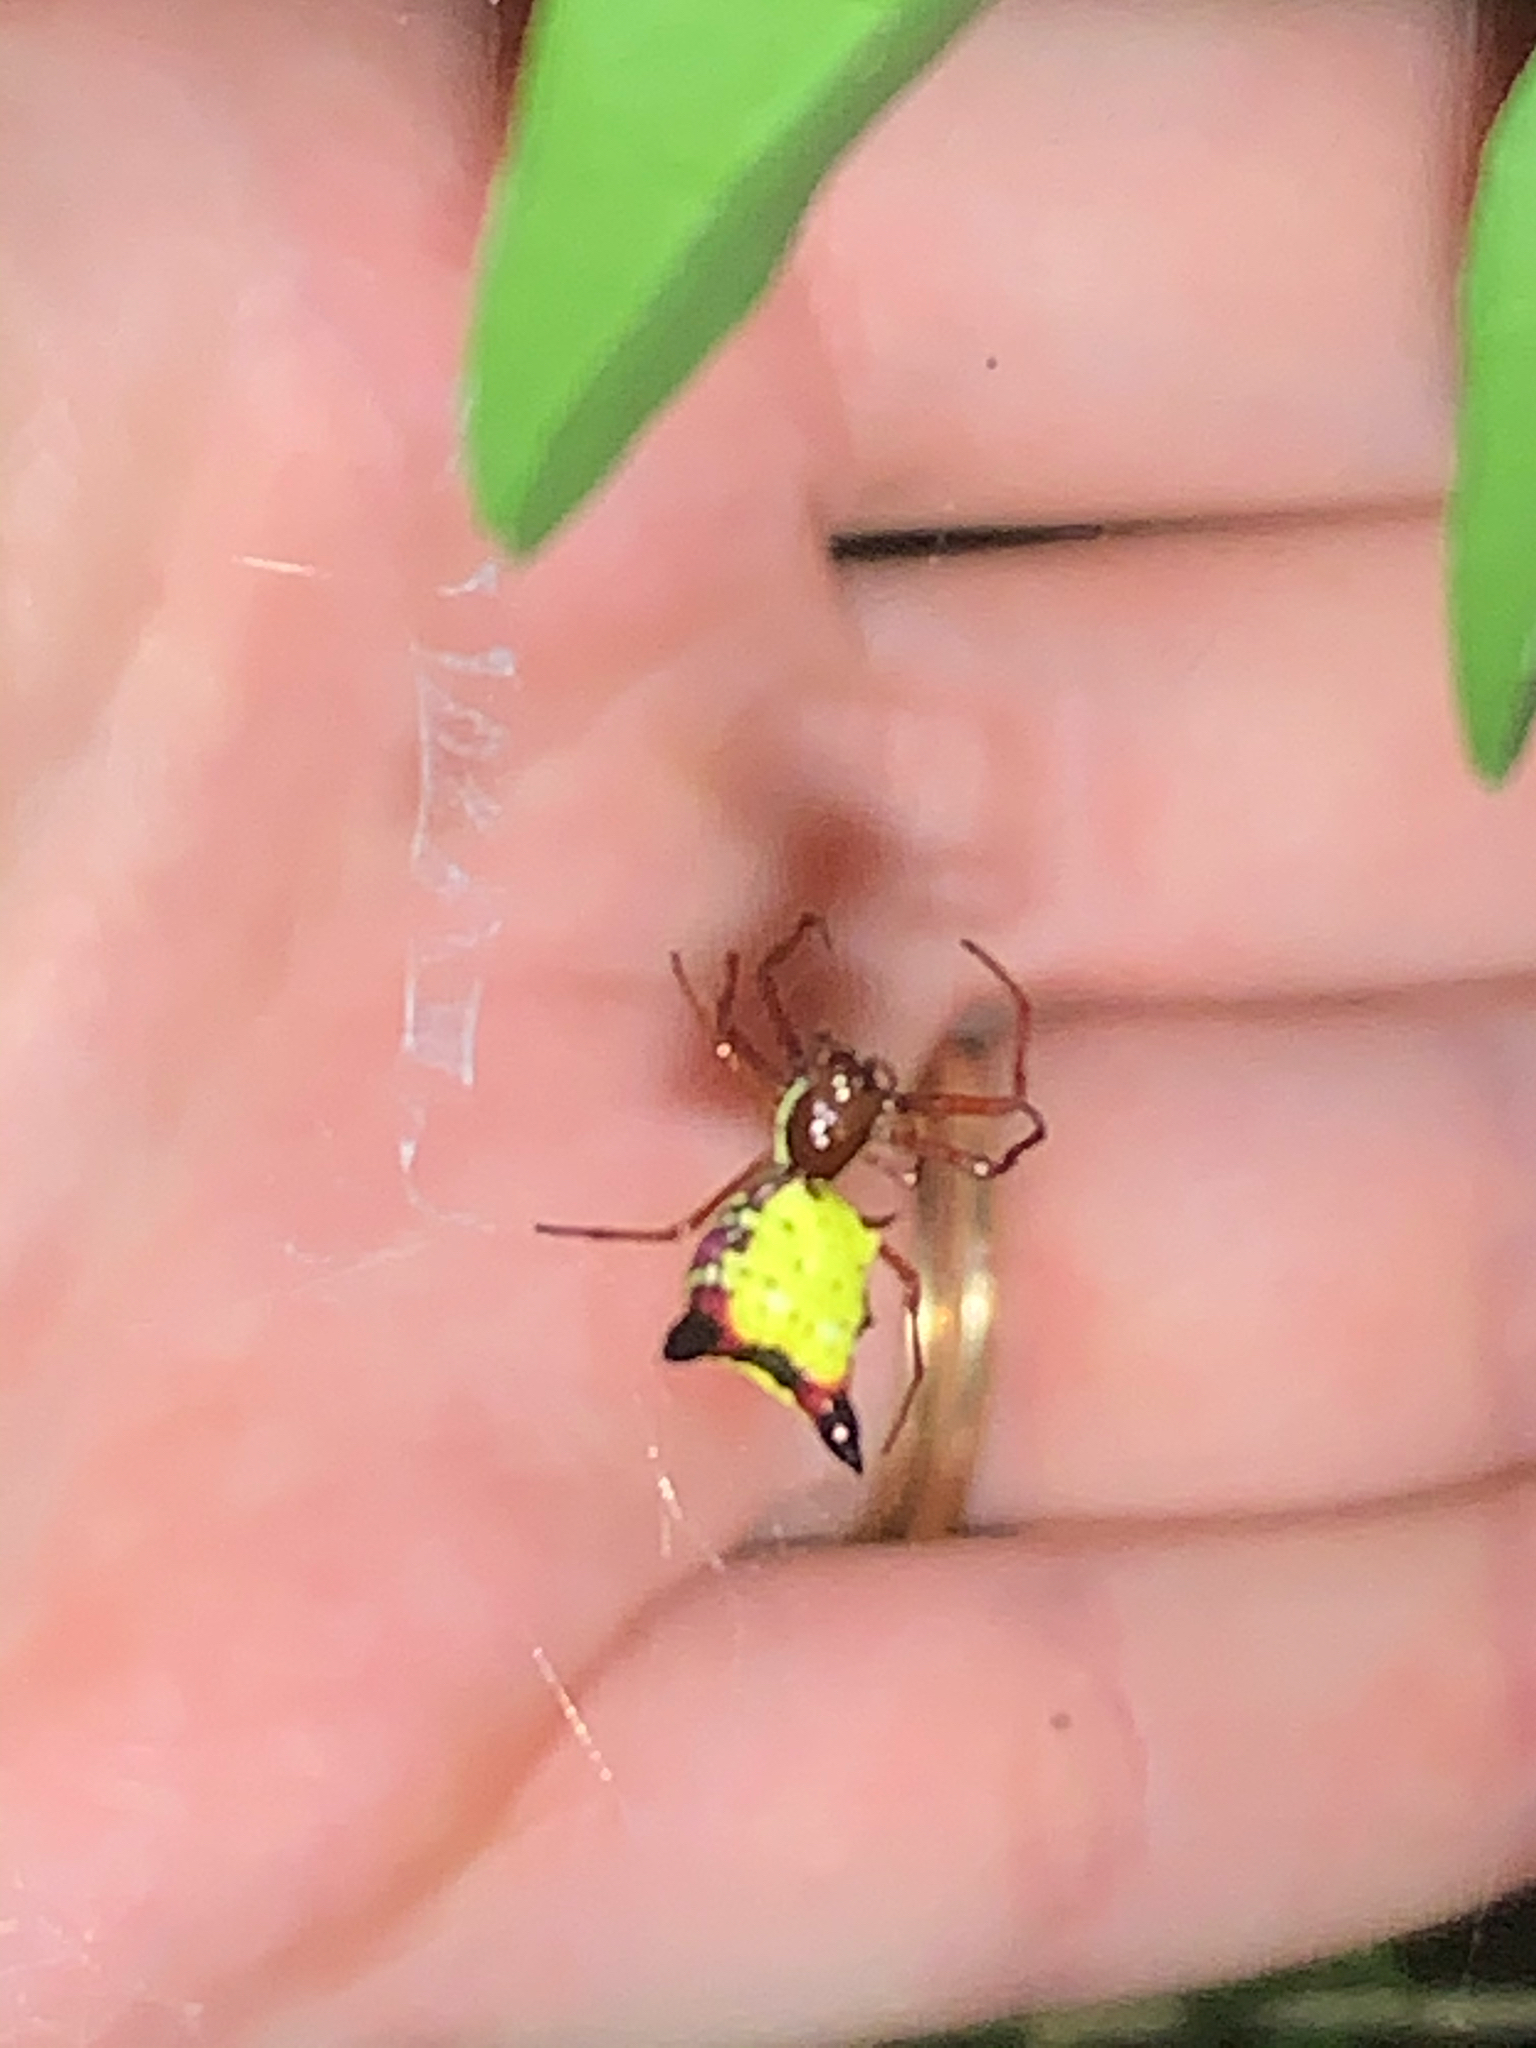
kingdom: Animalia
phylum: Arthropoda
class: Arachnida
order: Araneae
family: Araneidae
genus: Micrathena
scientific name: Micrathena sagittata
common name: Orb weavers
